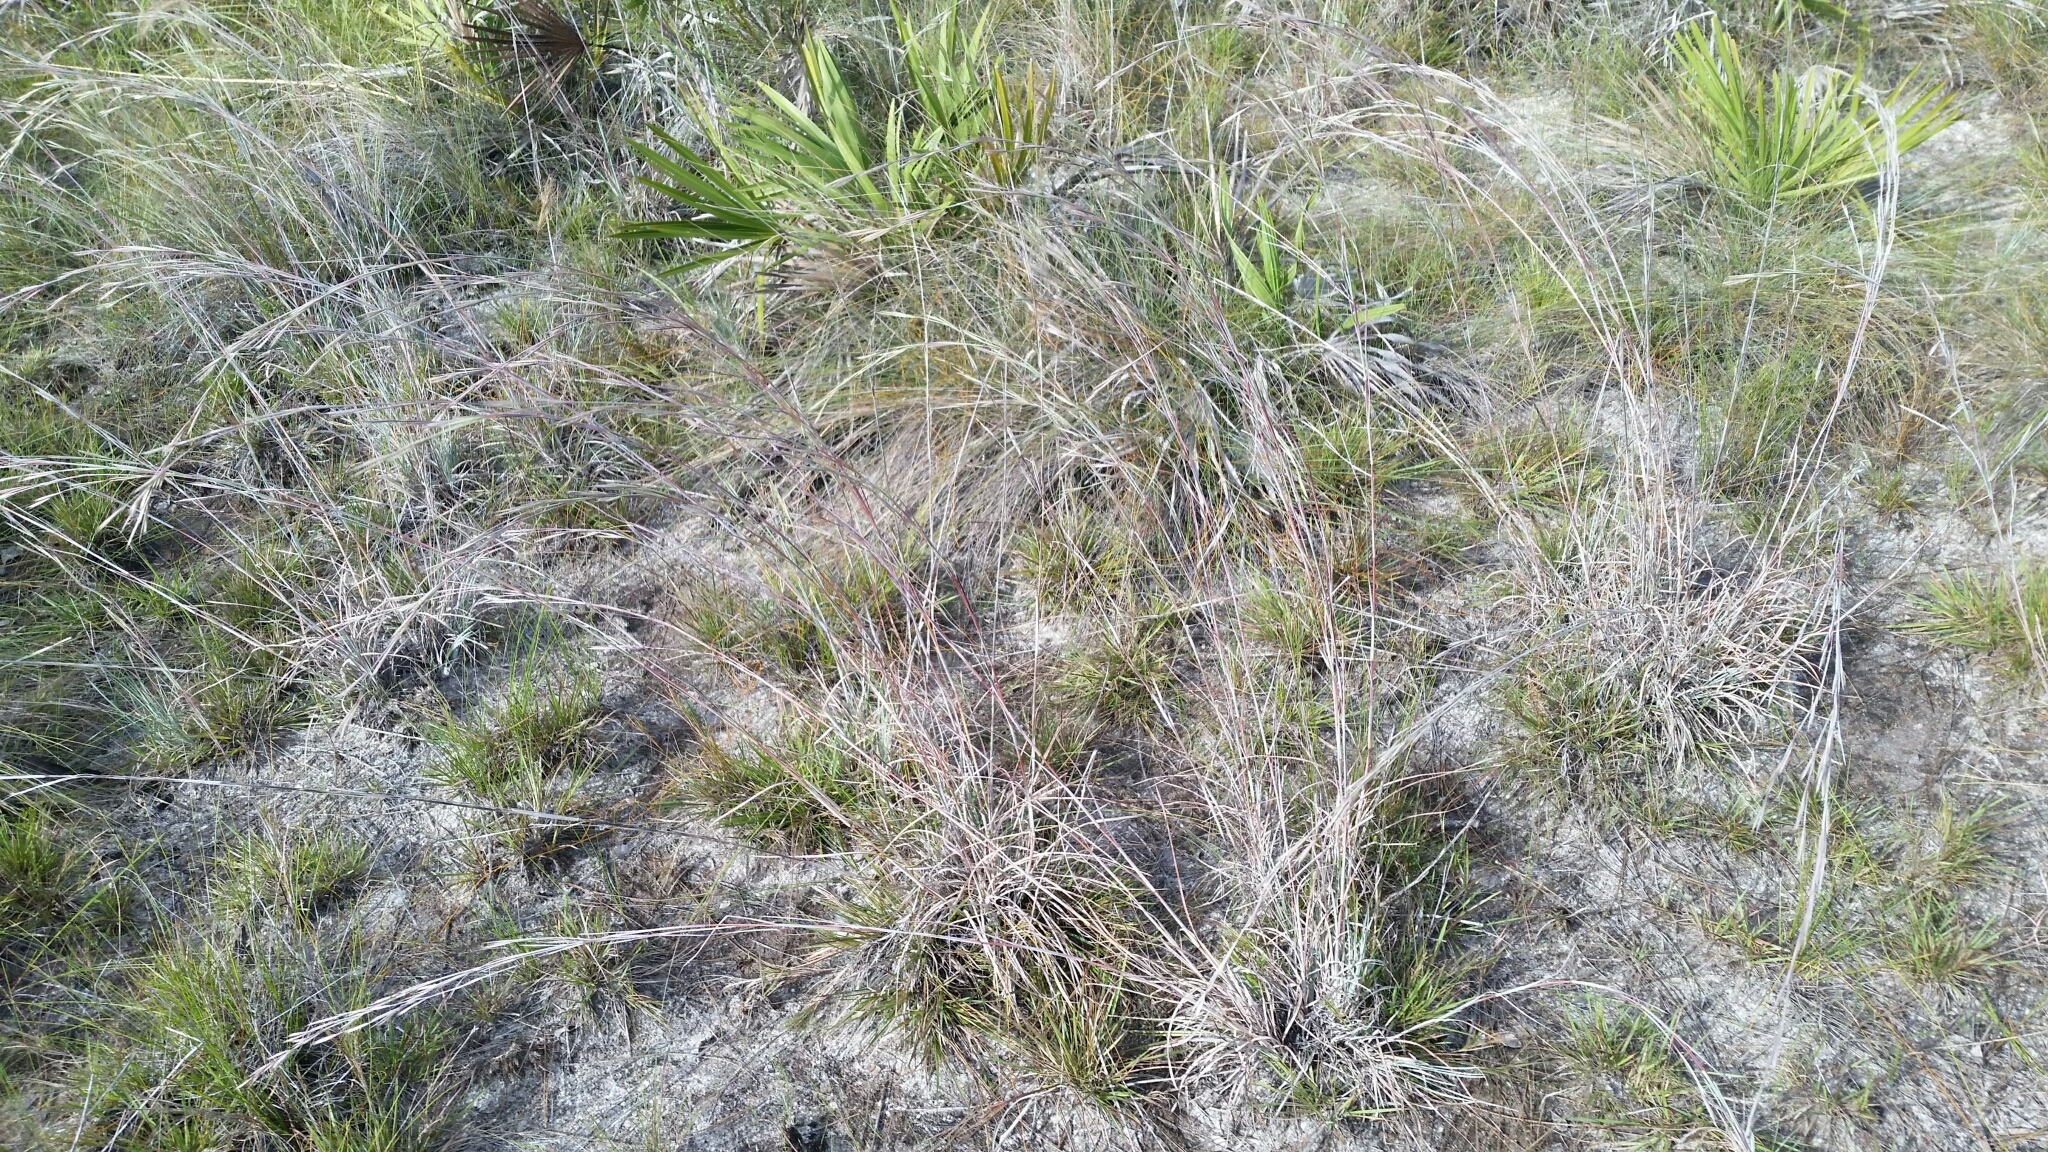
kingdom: Plantae
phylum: Tracheophyta
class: Liliopsida
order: Poales
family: Poaceae
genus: Andropogon
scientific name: Andropogon capillipes
